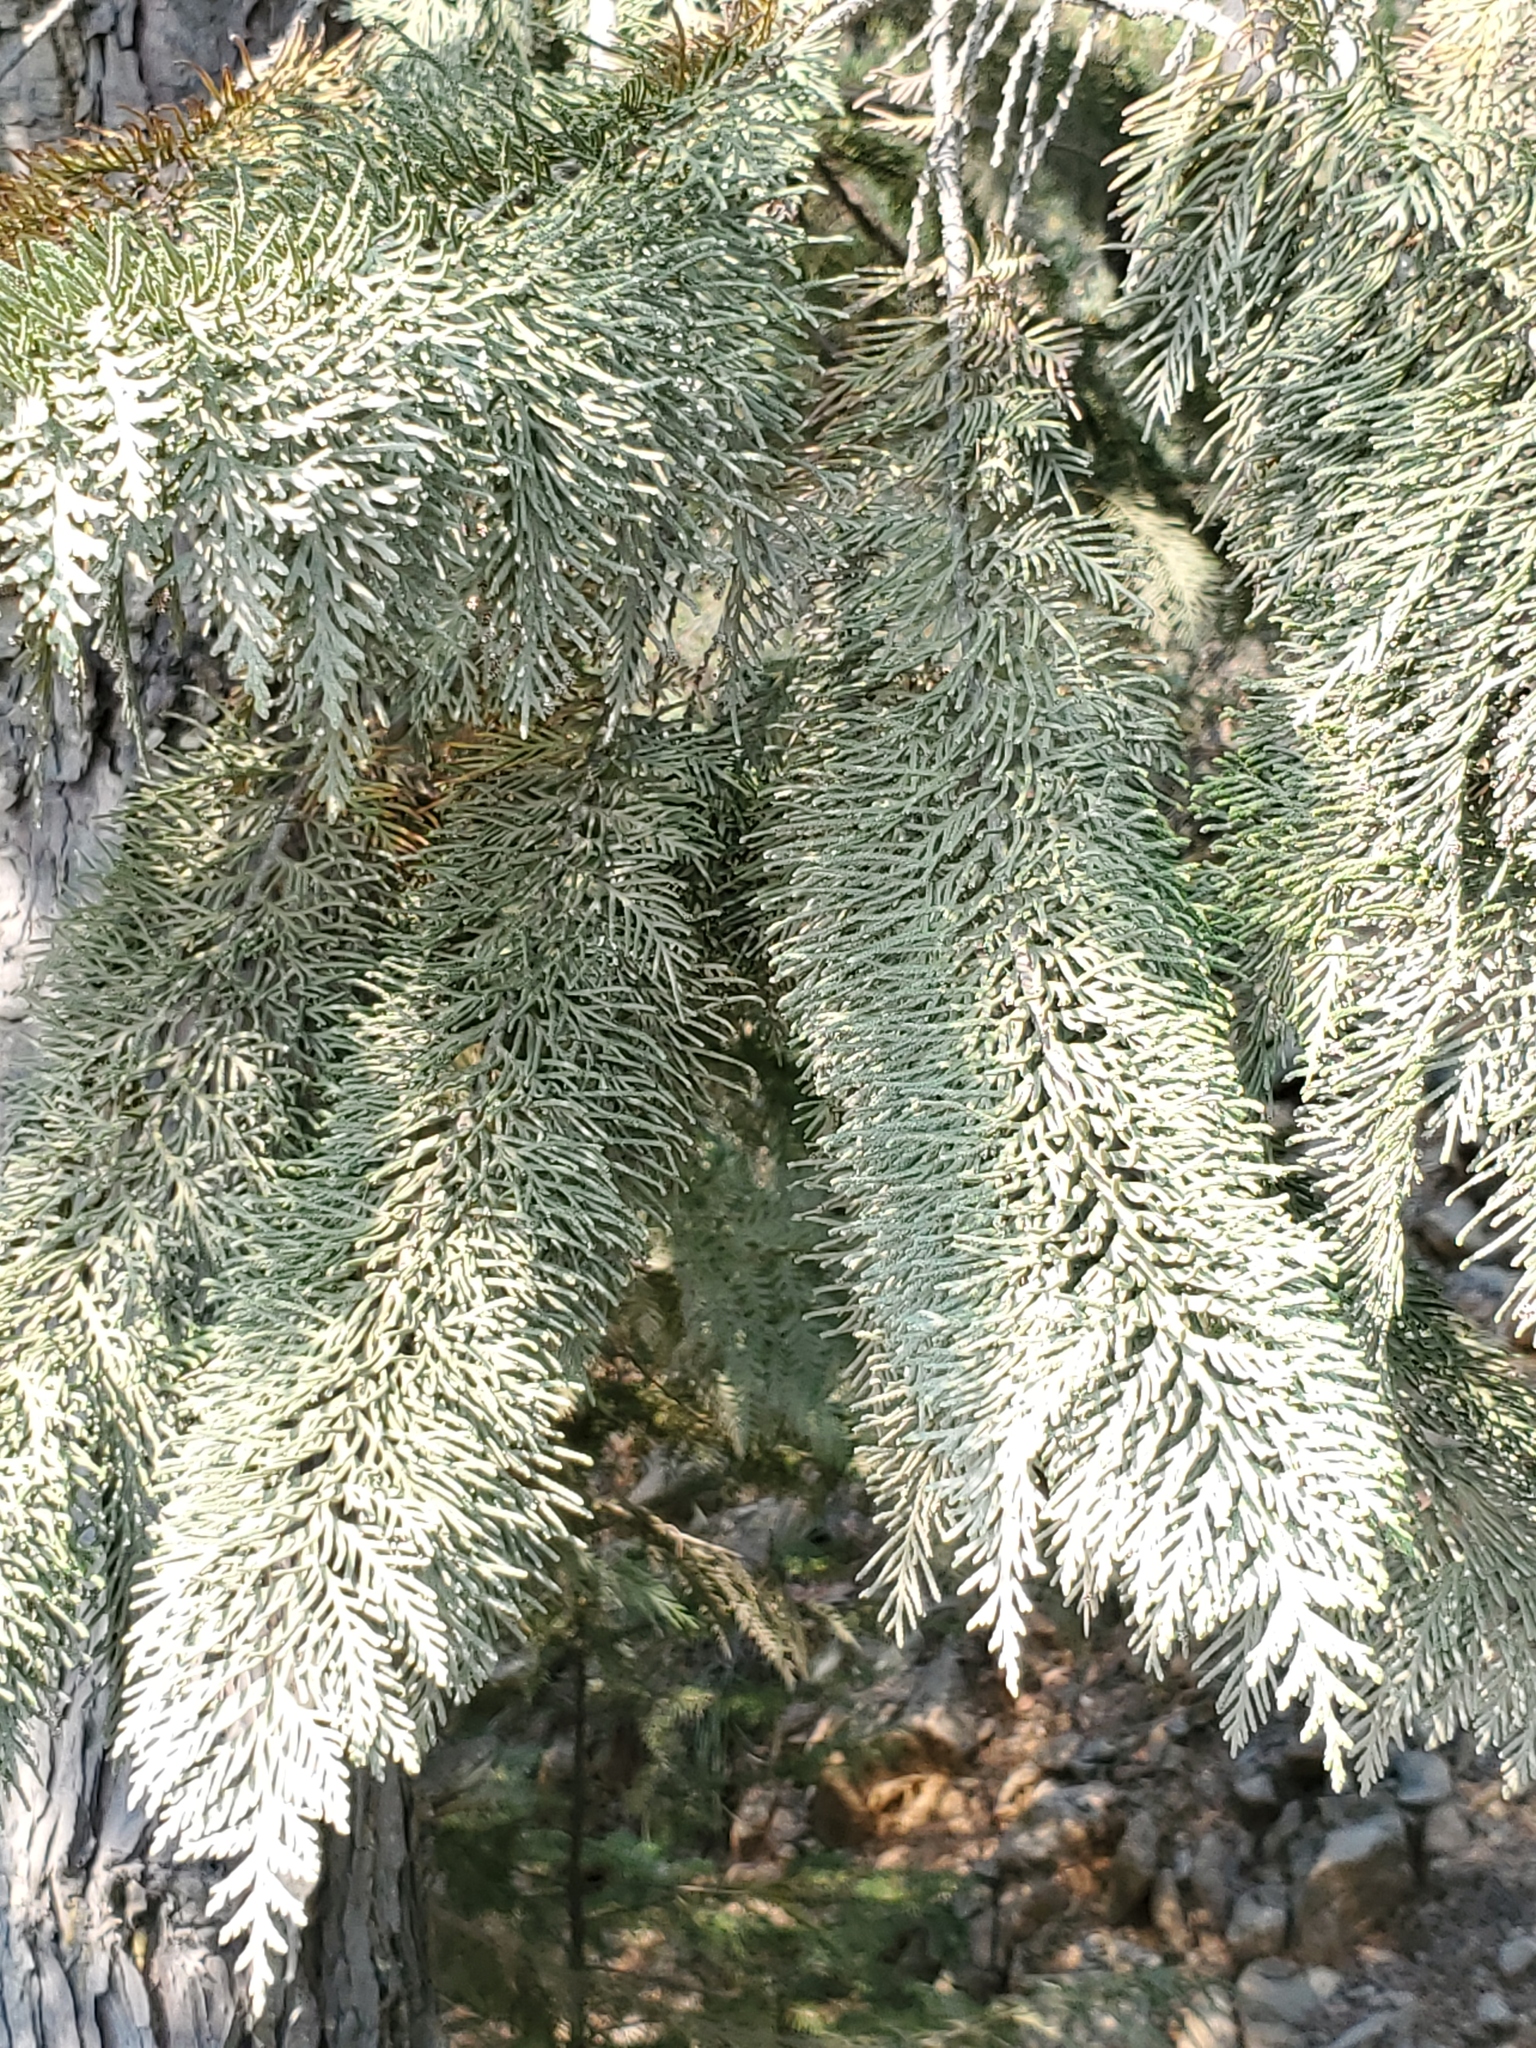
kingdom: Plantae
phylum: Tracheophyta
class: Pinopsida
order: Pinales
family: Cupressaceae
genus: Chamaecyparis
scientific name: Chamaecyparis lawsoniana
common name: Lawson's cypress
